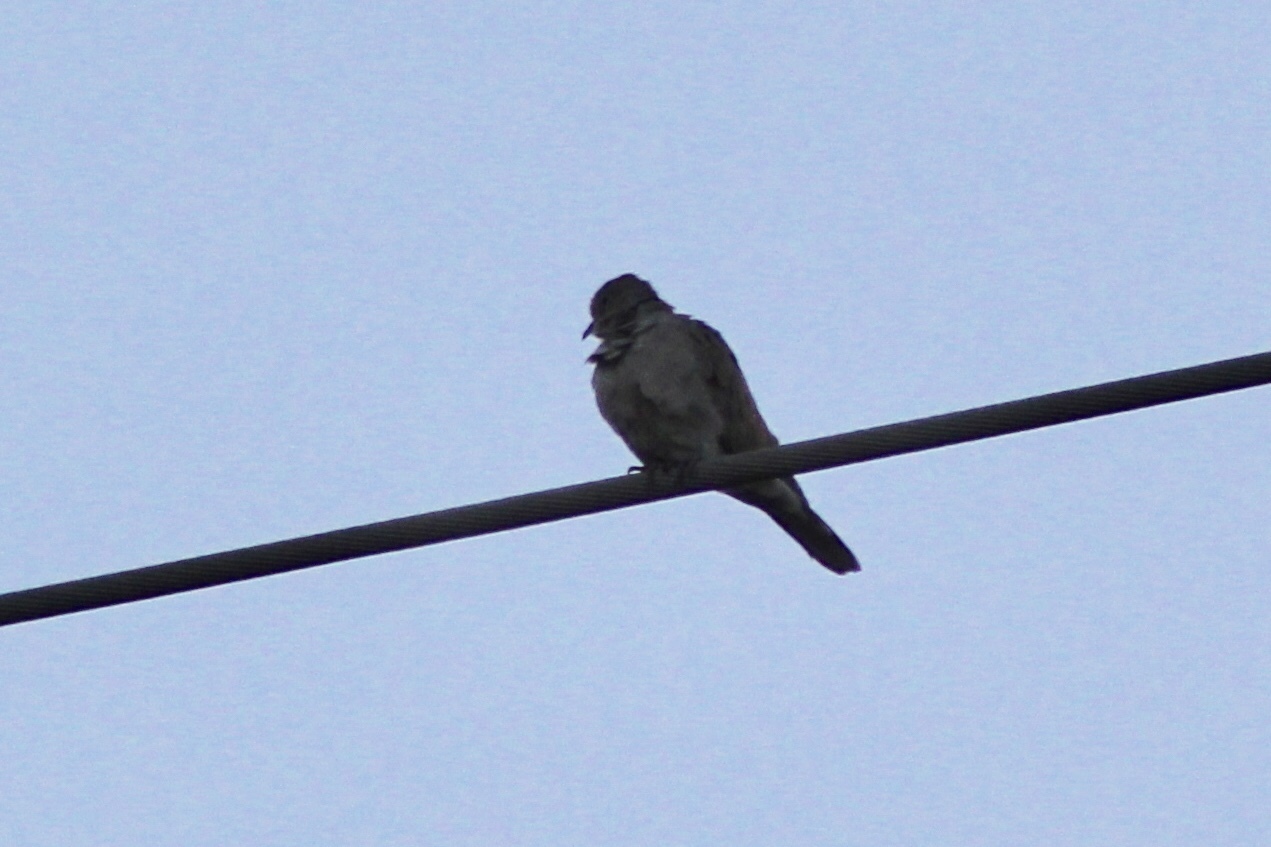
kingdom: Animalia
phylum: Chordata
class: Aves
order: Columbiformes
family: Columbidae
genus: Streptopelia
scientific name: Streptopelia decaocto
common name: Eurasian collared dove
